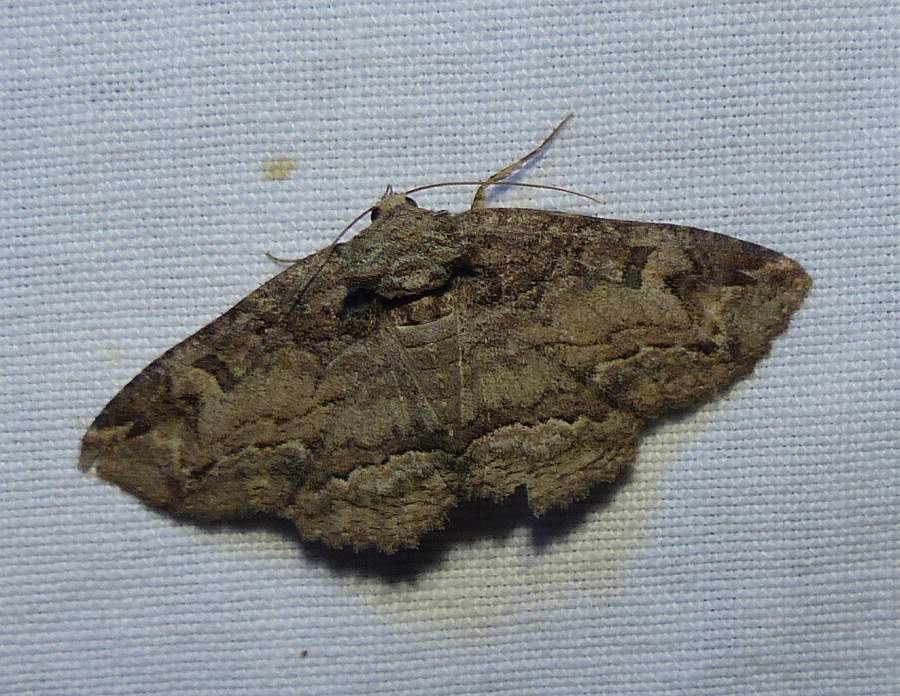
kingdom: Animalia
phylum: Arthropoda
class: Insecta
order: Lepidoptera
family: Erebidae
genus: Zale
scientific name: Zale galbanata
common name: Maple zale
